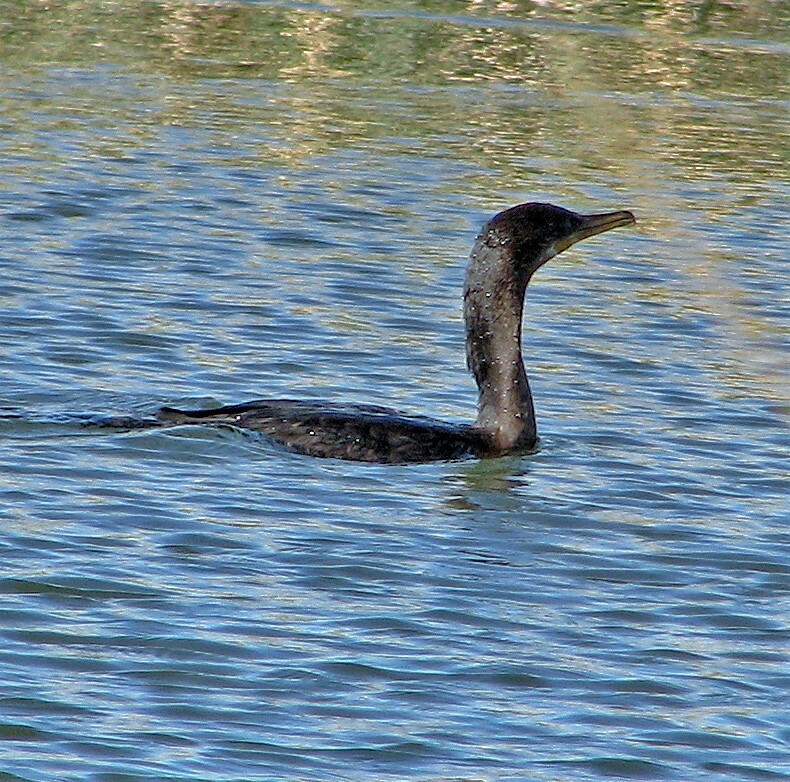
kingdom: Animalia
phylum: Chordata
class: Aves
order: Suliformes
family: Phalacrocoracidae
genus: Phalacrocorax
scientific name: Phalacrocorax brasilianus
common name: Neotropic cormorant
